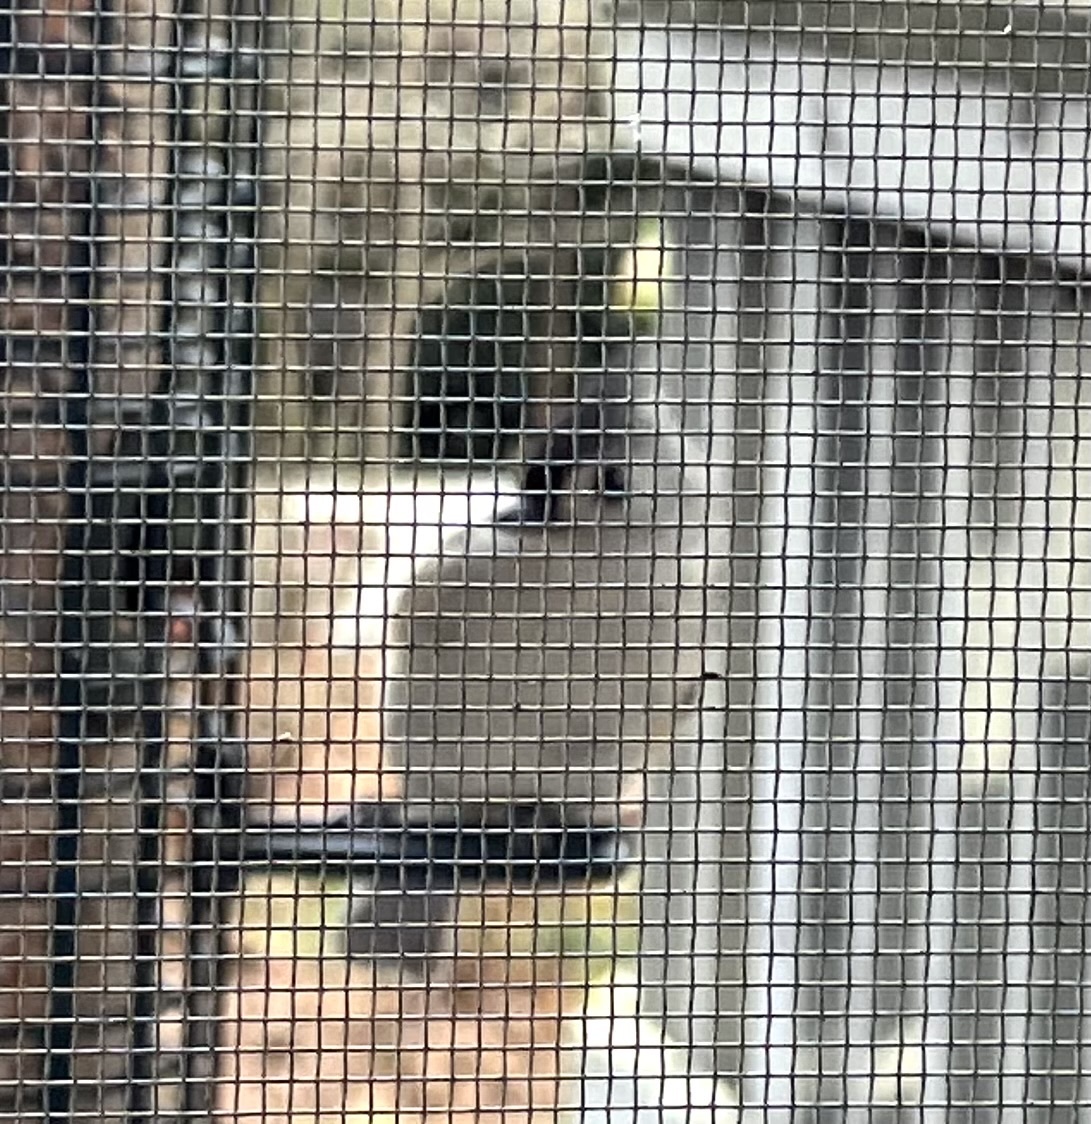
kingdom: Animalia
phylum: Chordata
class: Aves
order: Passeriformes
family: Paridae
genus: Baeolophus
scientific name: Baeolophus bicolor
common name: Tufted titmouse
